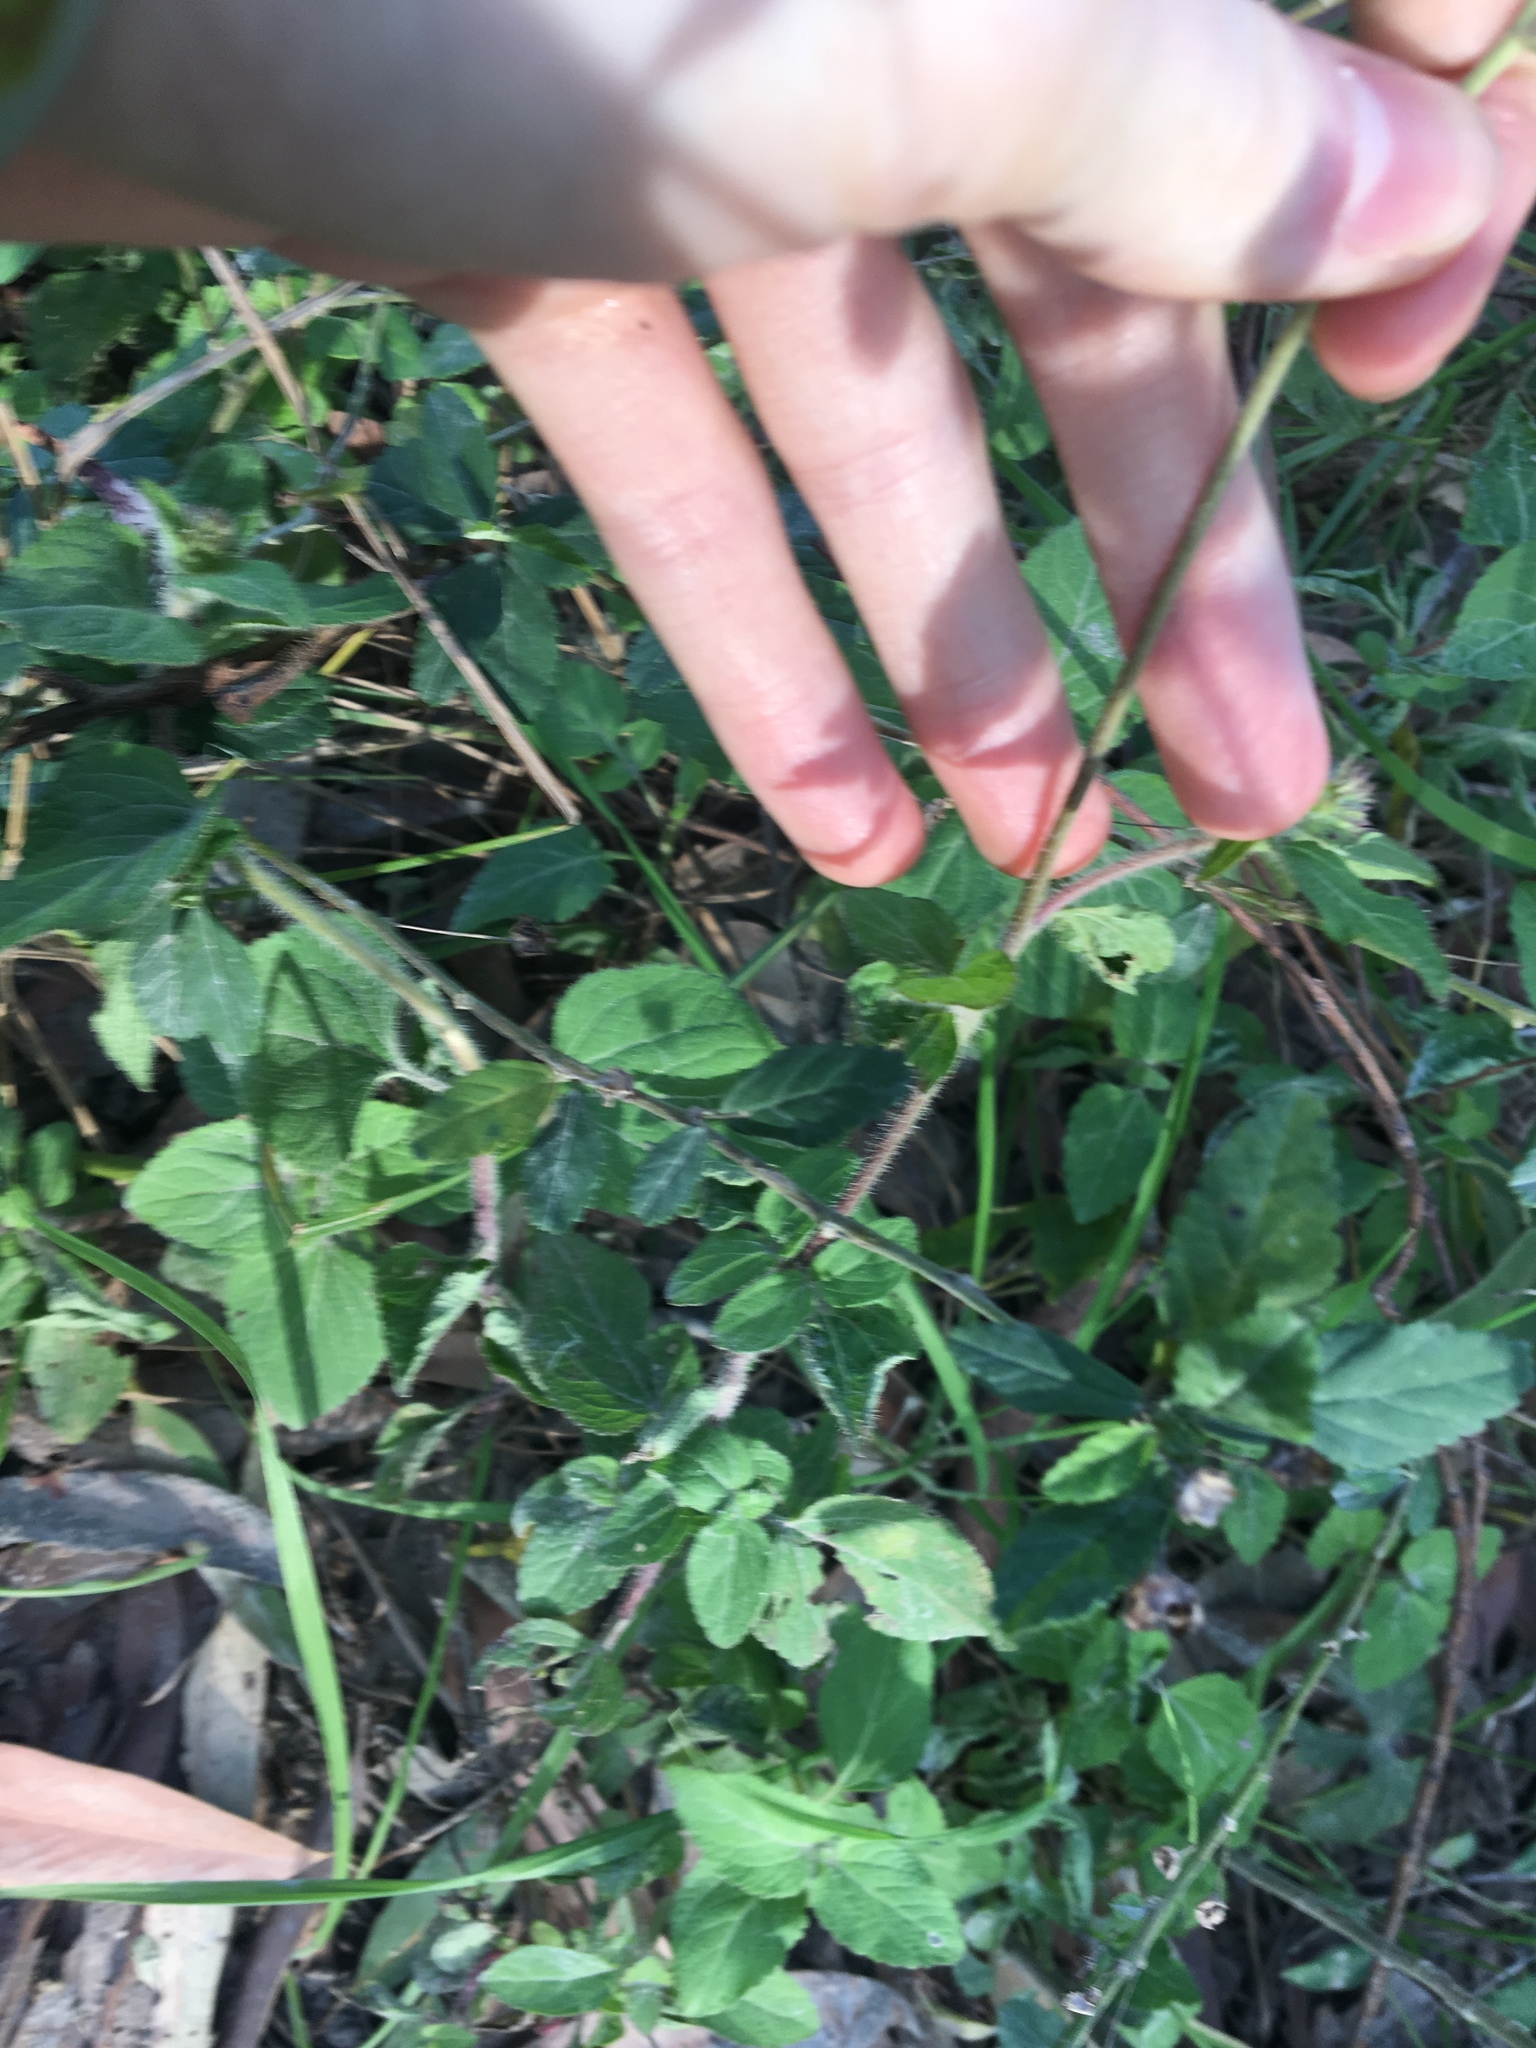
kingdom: Plantae
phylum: Tracheophyta
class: Magnoliopsida
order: Asterales
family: Asteraceae
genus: Ageratum
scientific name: Ageratum houstonianum
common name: Bluemink
